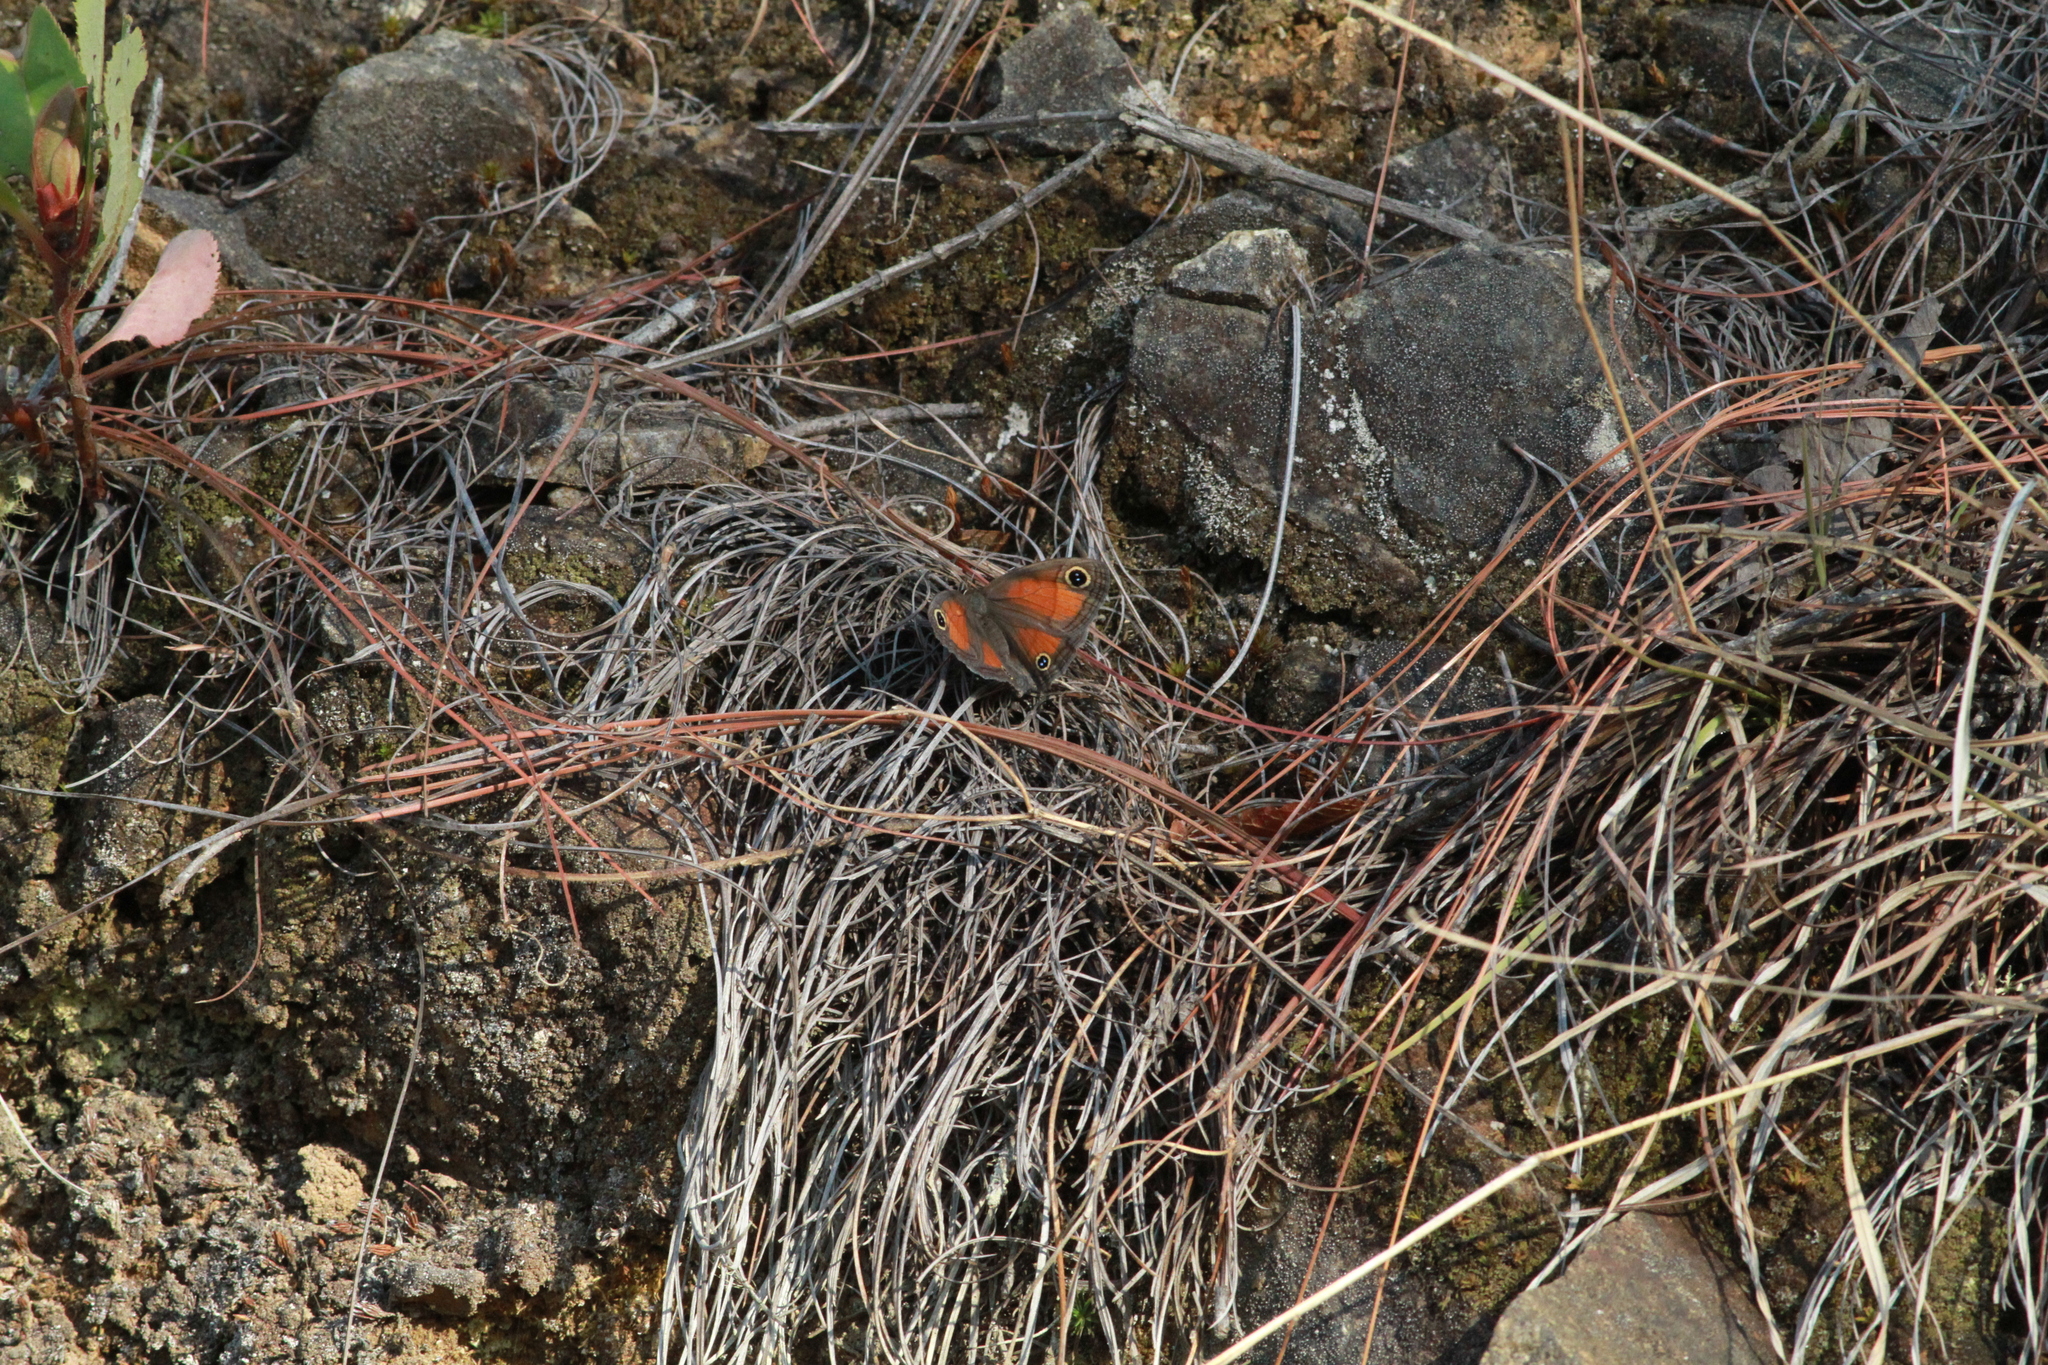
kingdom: Animalia
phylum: Arthropoda
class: Insecta
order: Lepidoptera
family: Nymphalidae
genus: Euptychia
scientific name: Euptychia
